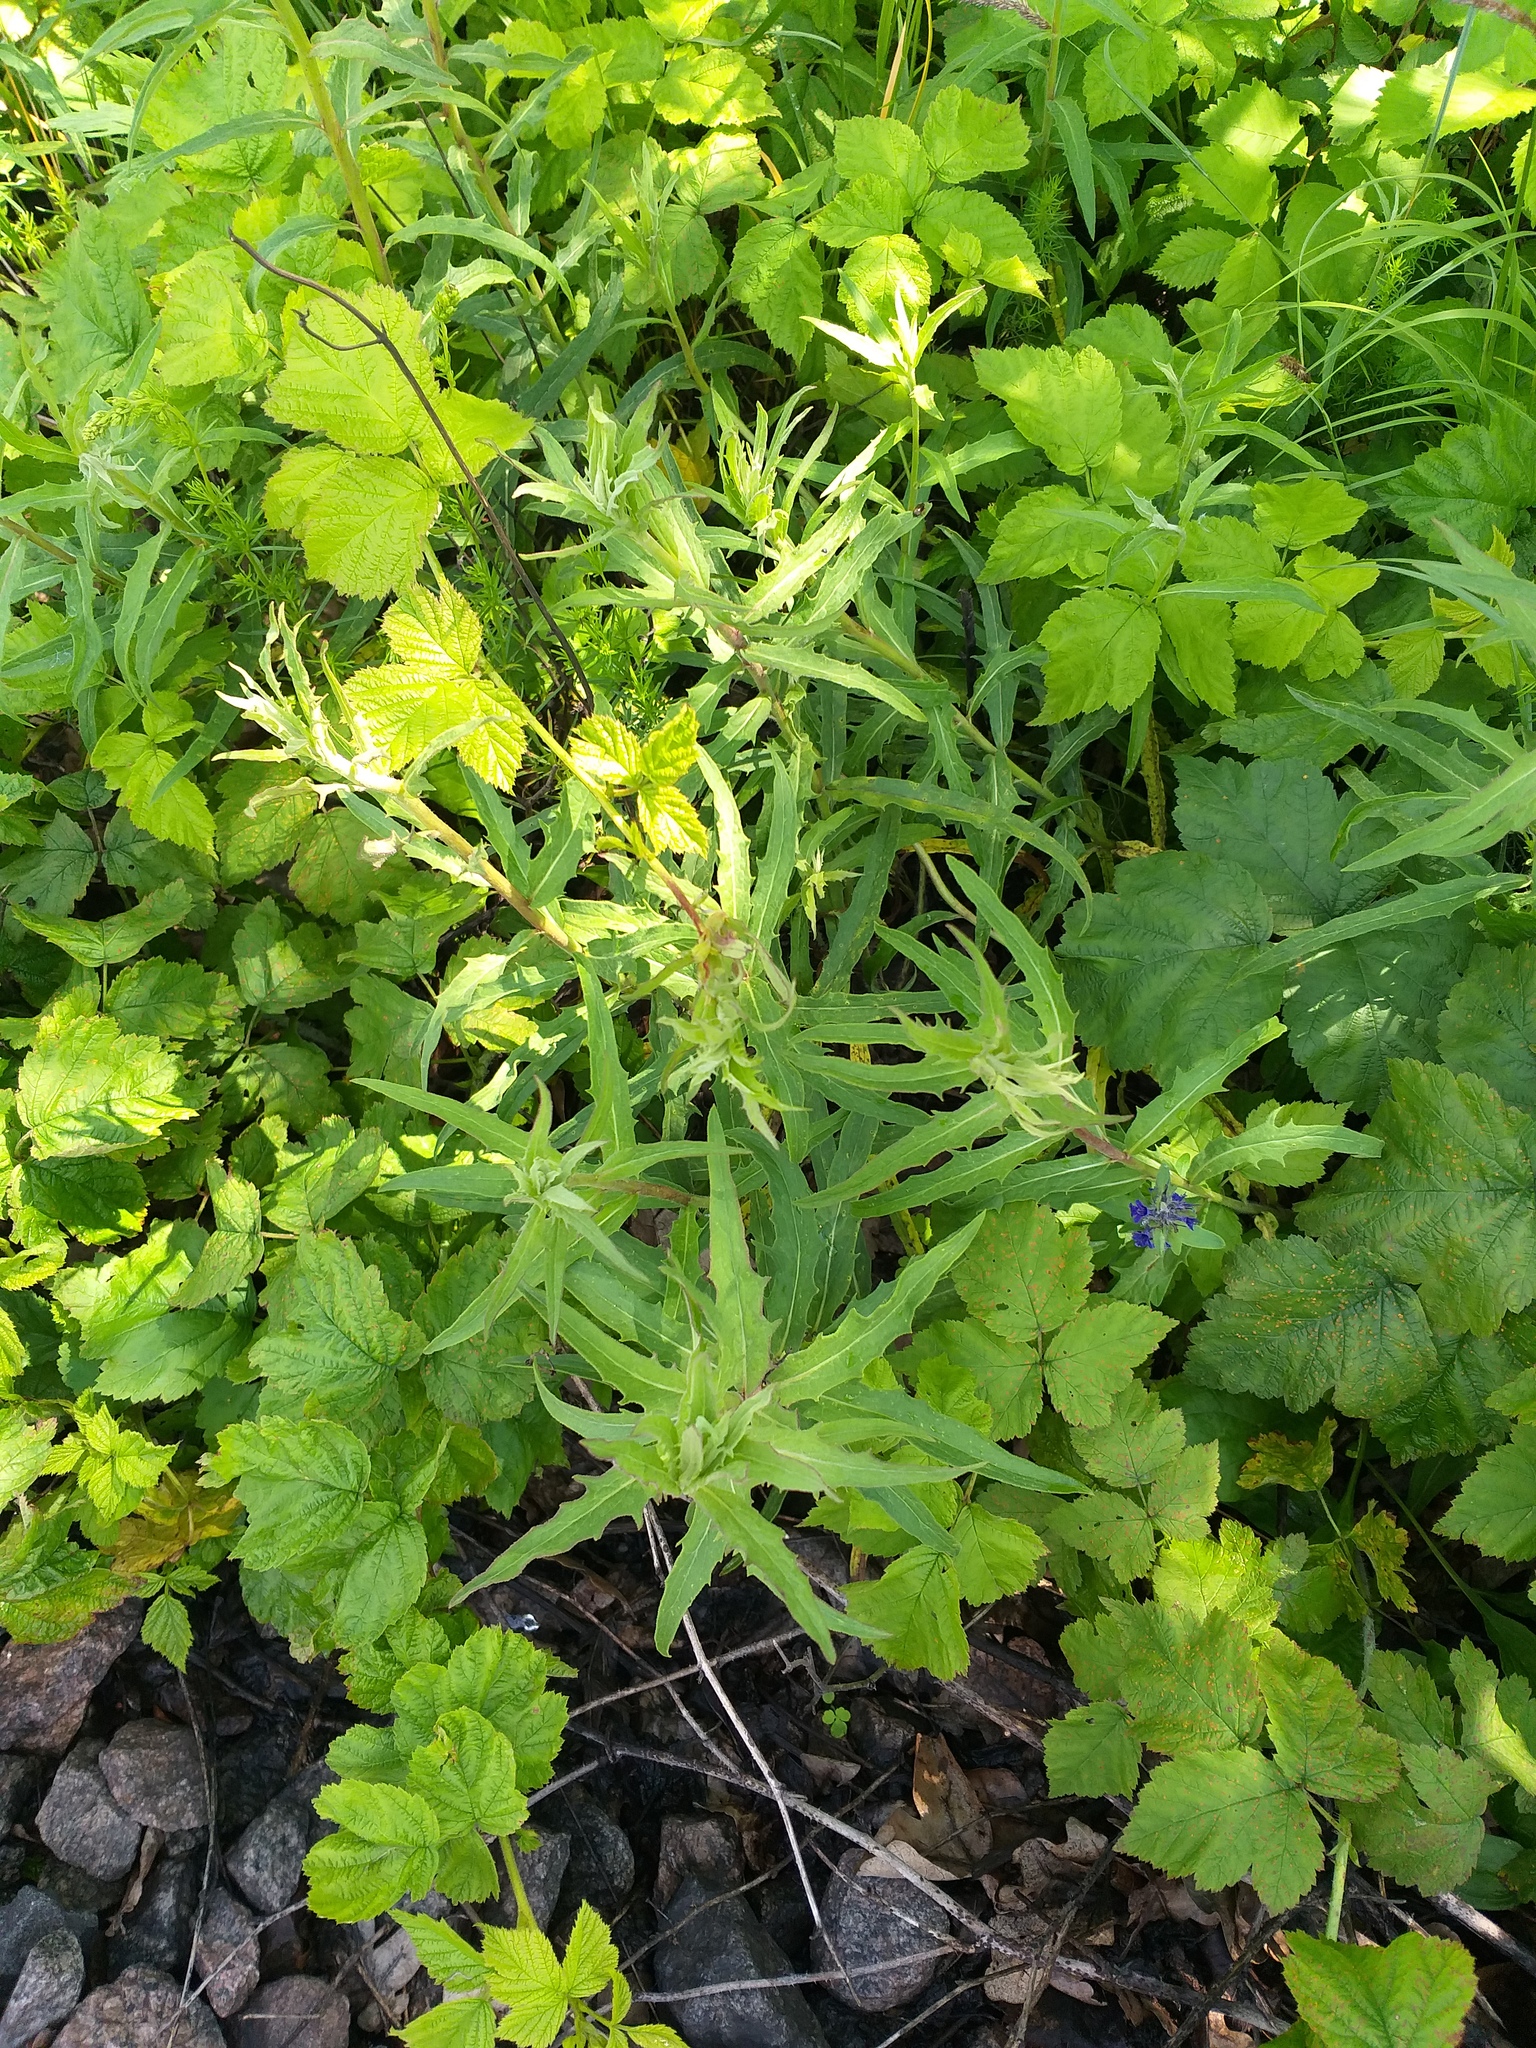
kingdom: Plantae
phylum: Tracheophyta
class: Magnoliopsida
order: Asterales
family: Asteraceae
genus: Hieracium
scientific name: Hieracium umbellatum
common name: Northern hawkweed
